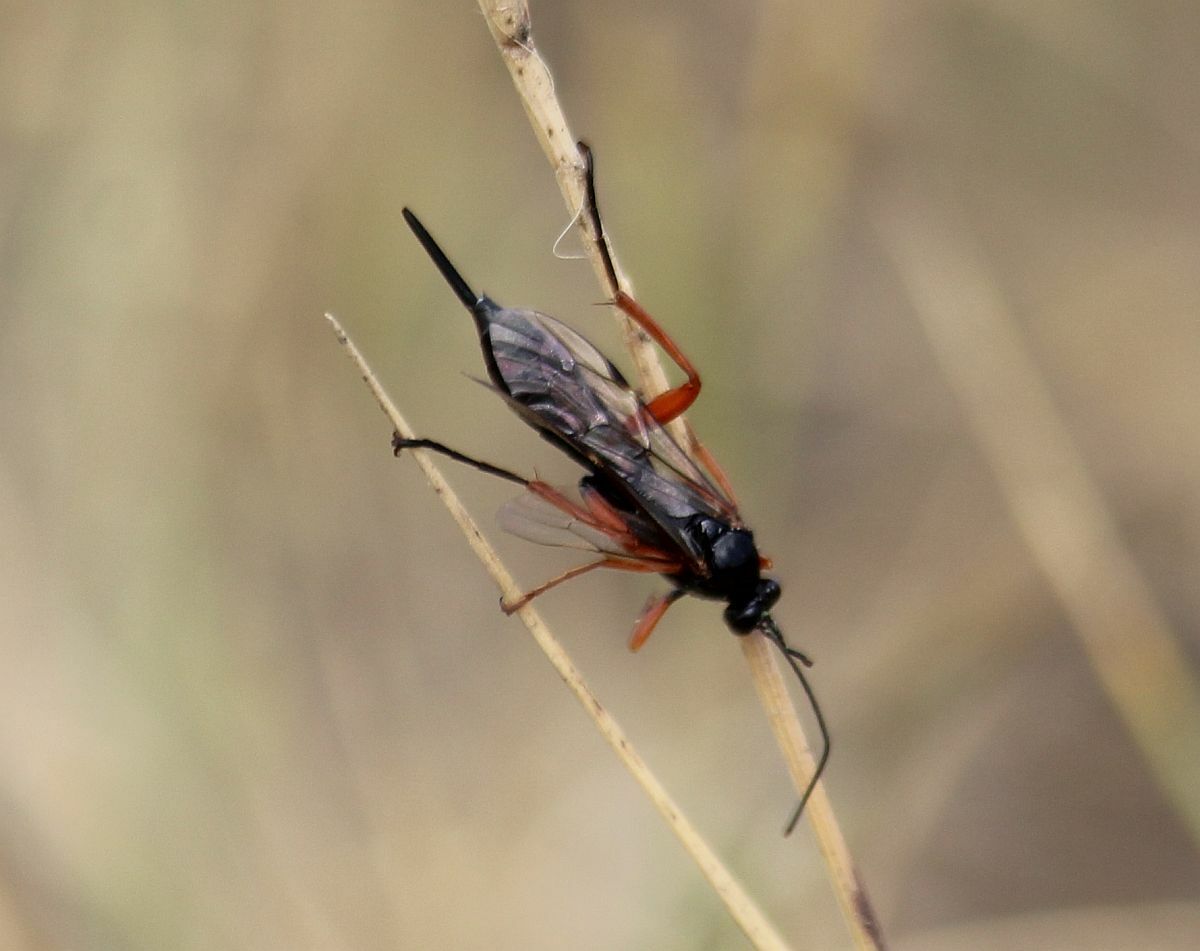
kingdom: Animalia
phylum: Arthropoda
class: Insecta
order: Hymenoptera
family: Ichneumonidae
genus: Pimpla
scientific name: Pimpla rufipes
